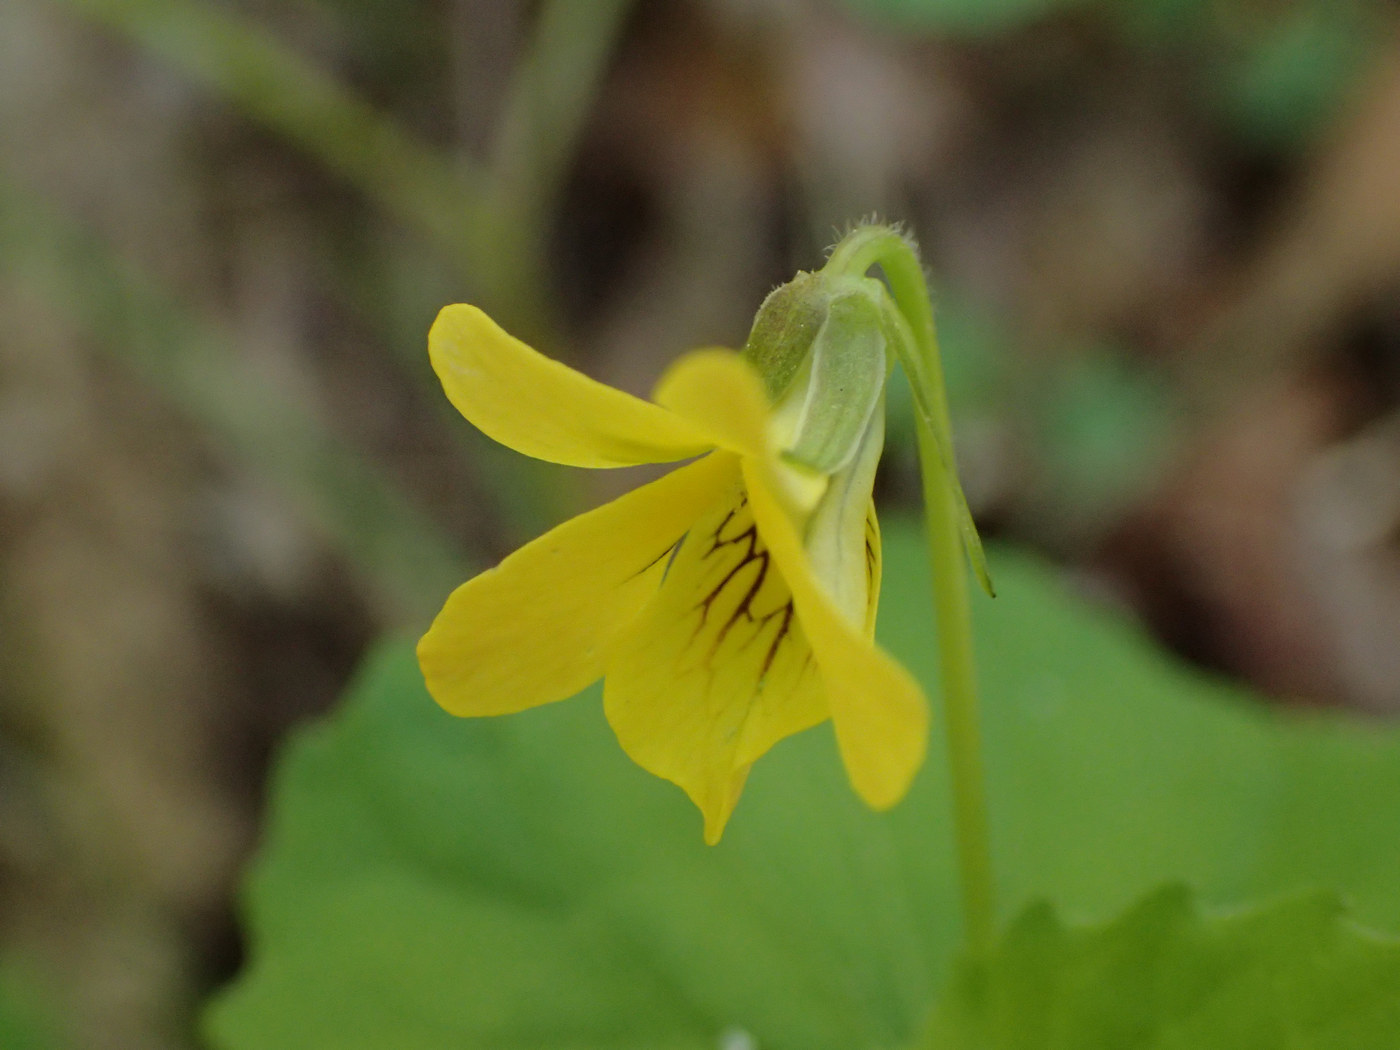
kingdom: Plantae
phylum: Tracheophyta
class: Magnoliopsida
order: Malpighiales
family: Violaceae
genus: Viola
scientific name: Viola eriocarpa
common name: Smooth yellow violet
